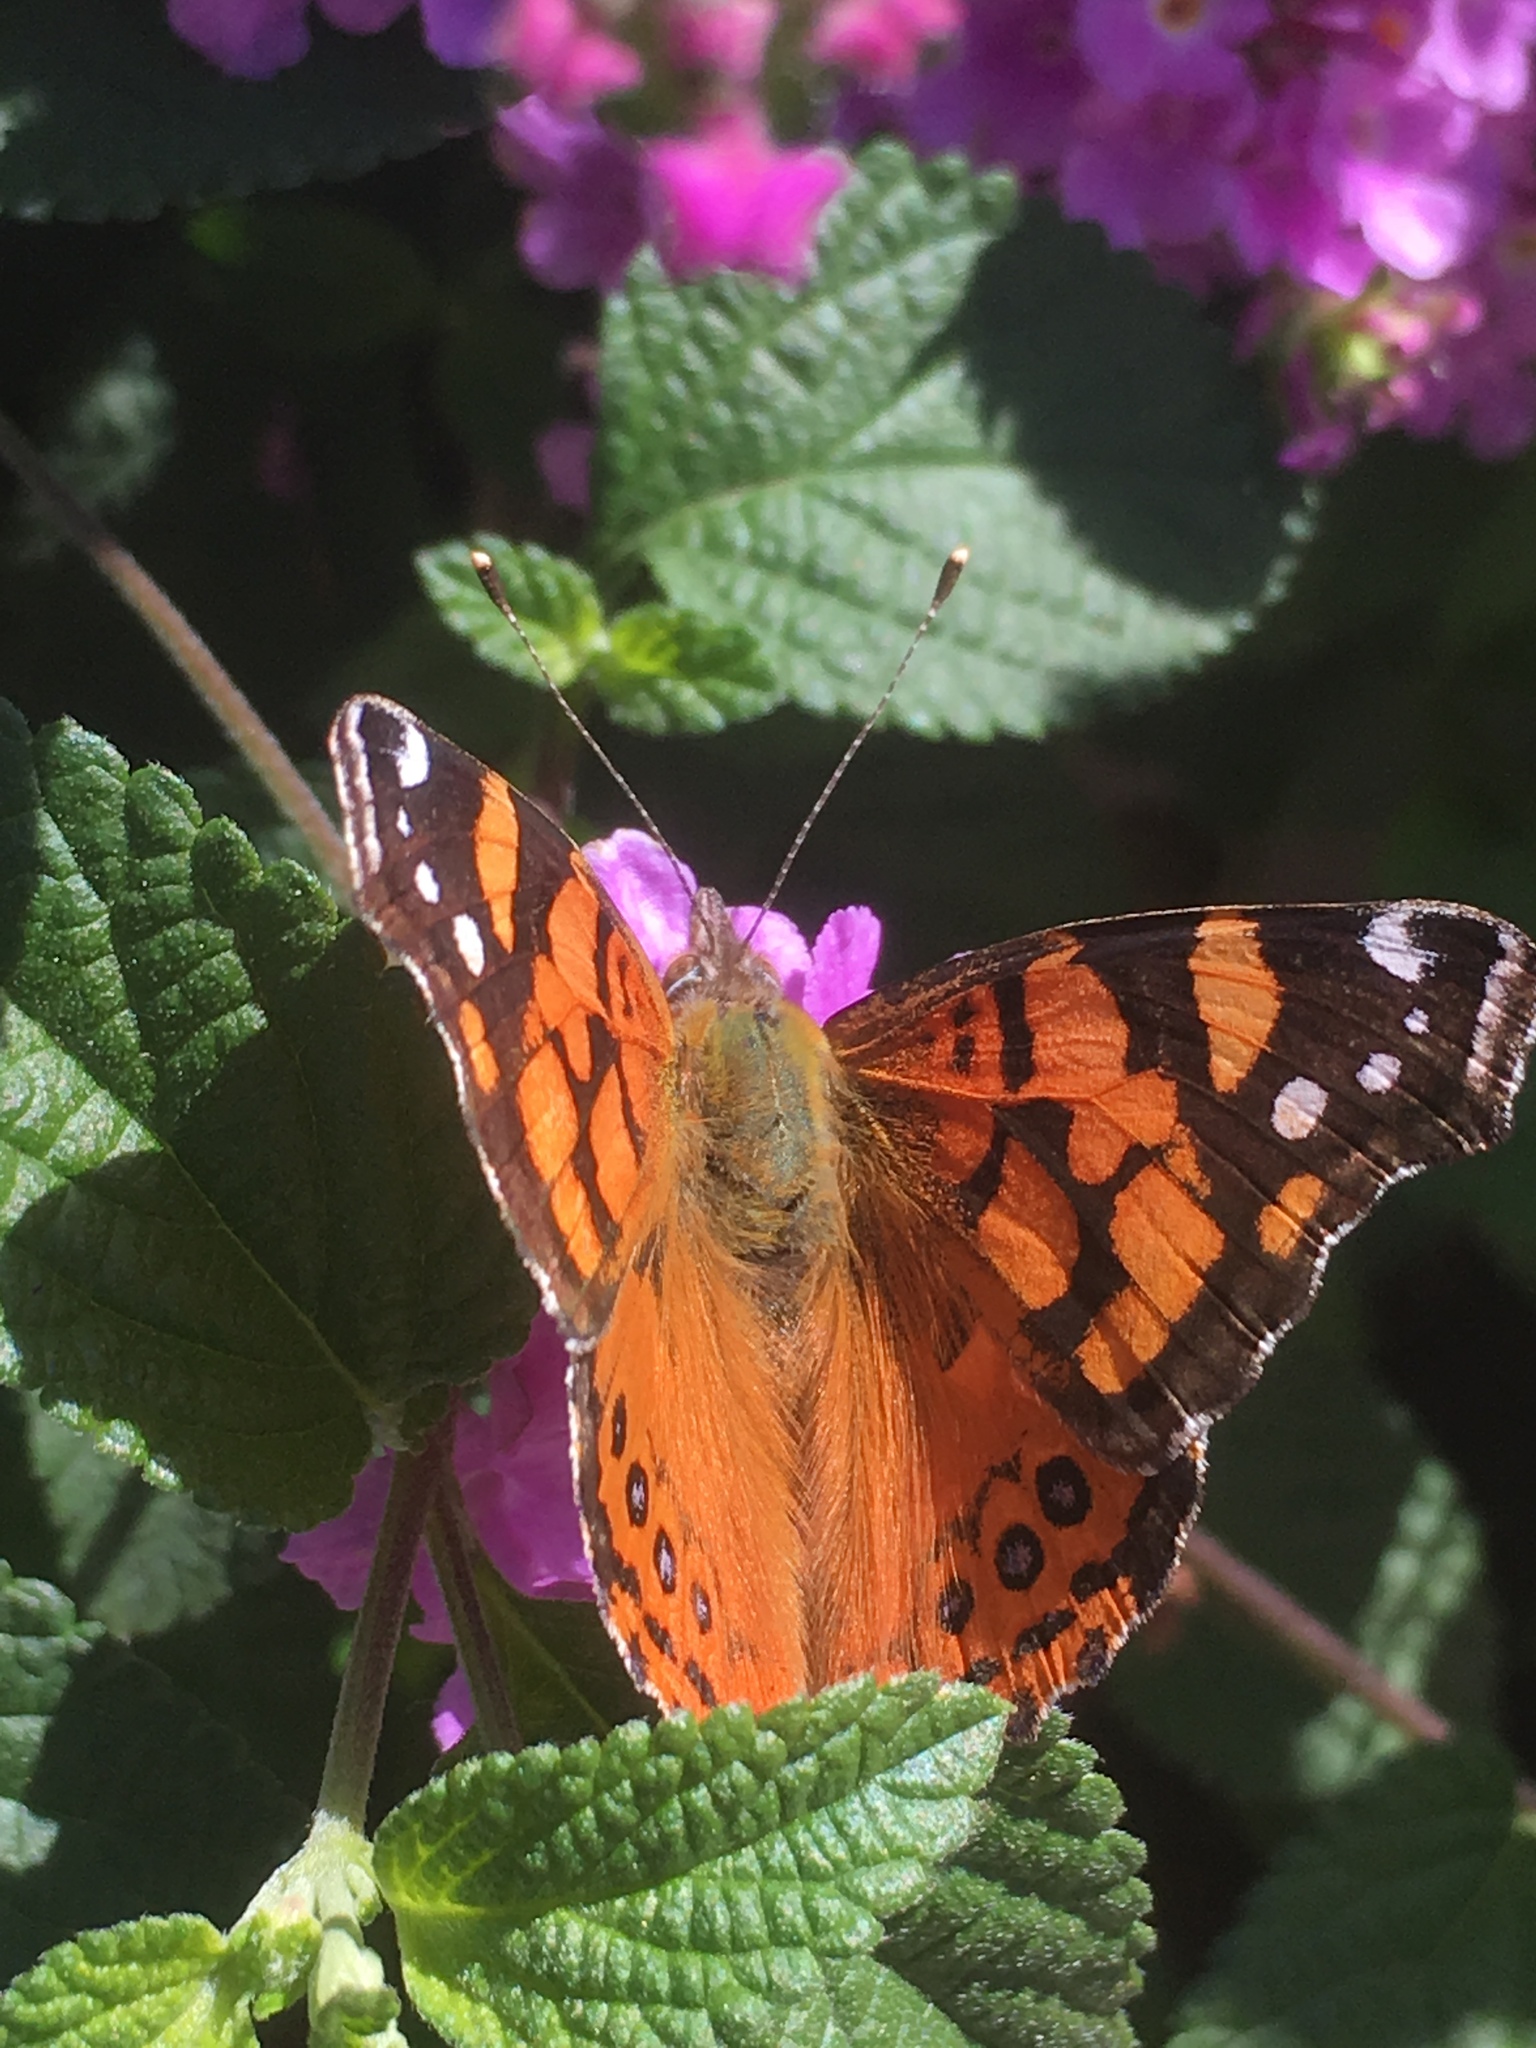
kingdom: Animalia
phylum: Arthropoda
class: Insecta
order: Lepidoptera
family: Nymphalidae
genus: Vanessa
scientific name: Vanessa annabella
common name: West coast lady
